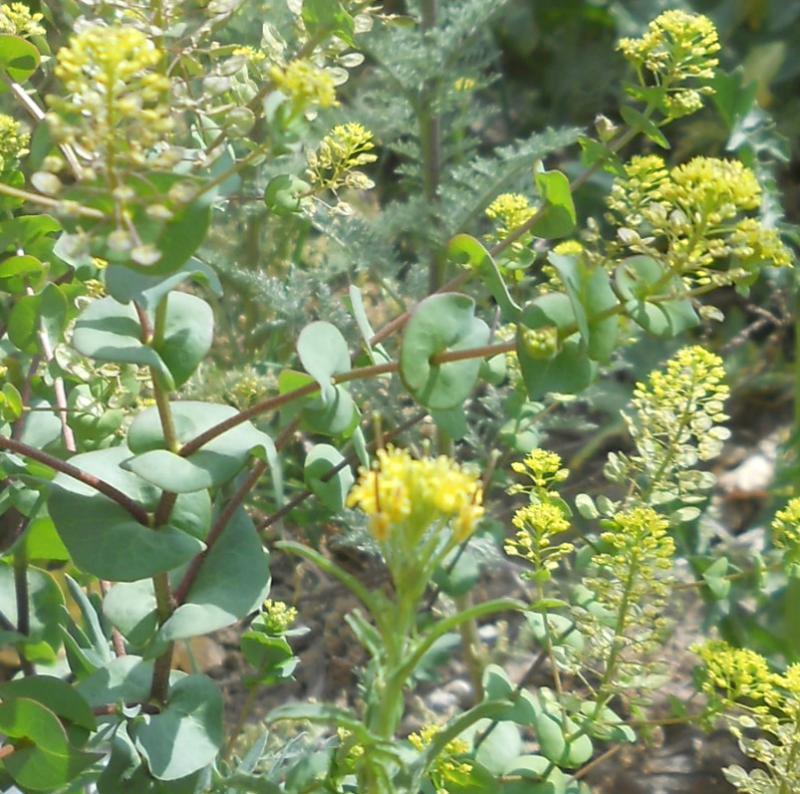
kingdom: Plantae
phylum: Tracheophyta
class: Magnoliopsida
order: Brassicales
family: Brassicaceae
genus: Lepidium
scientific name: Lepidium perfoliatum
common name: Perfoliate pepperwort
